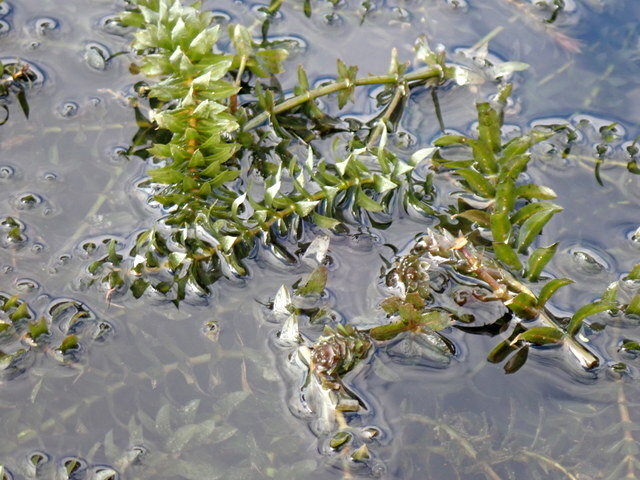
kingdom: Plantae
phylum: Tracheophyta
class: Liliopsida
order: Alismatales
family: Hydrocharitaceae
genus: Hydrilla
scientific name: Hydrilla verticillata
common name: Florida-elodea
